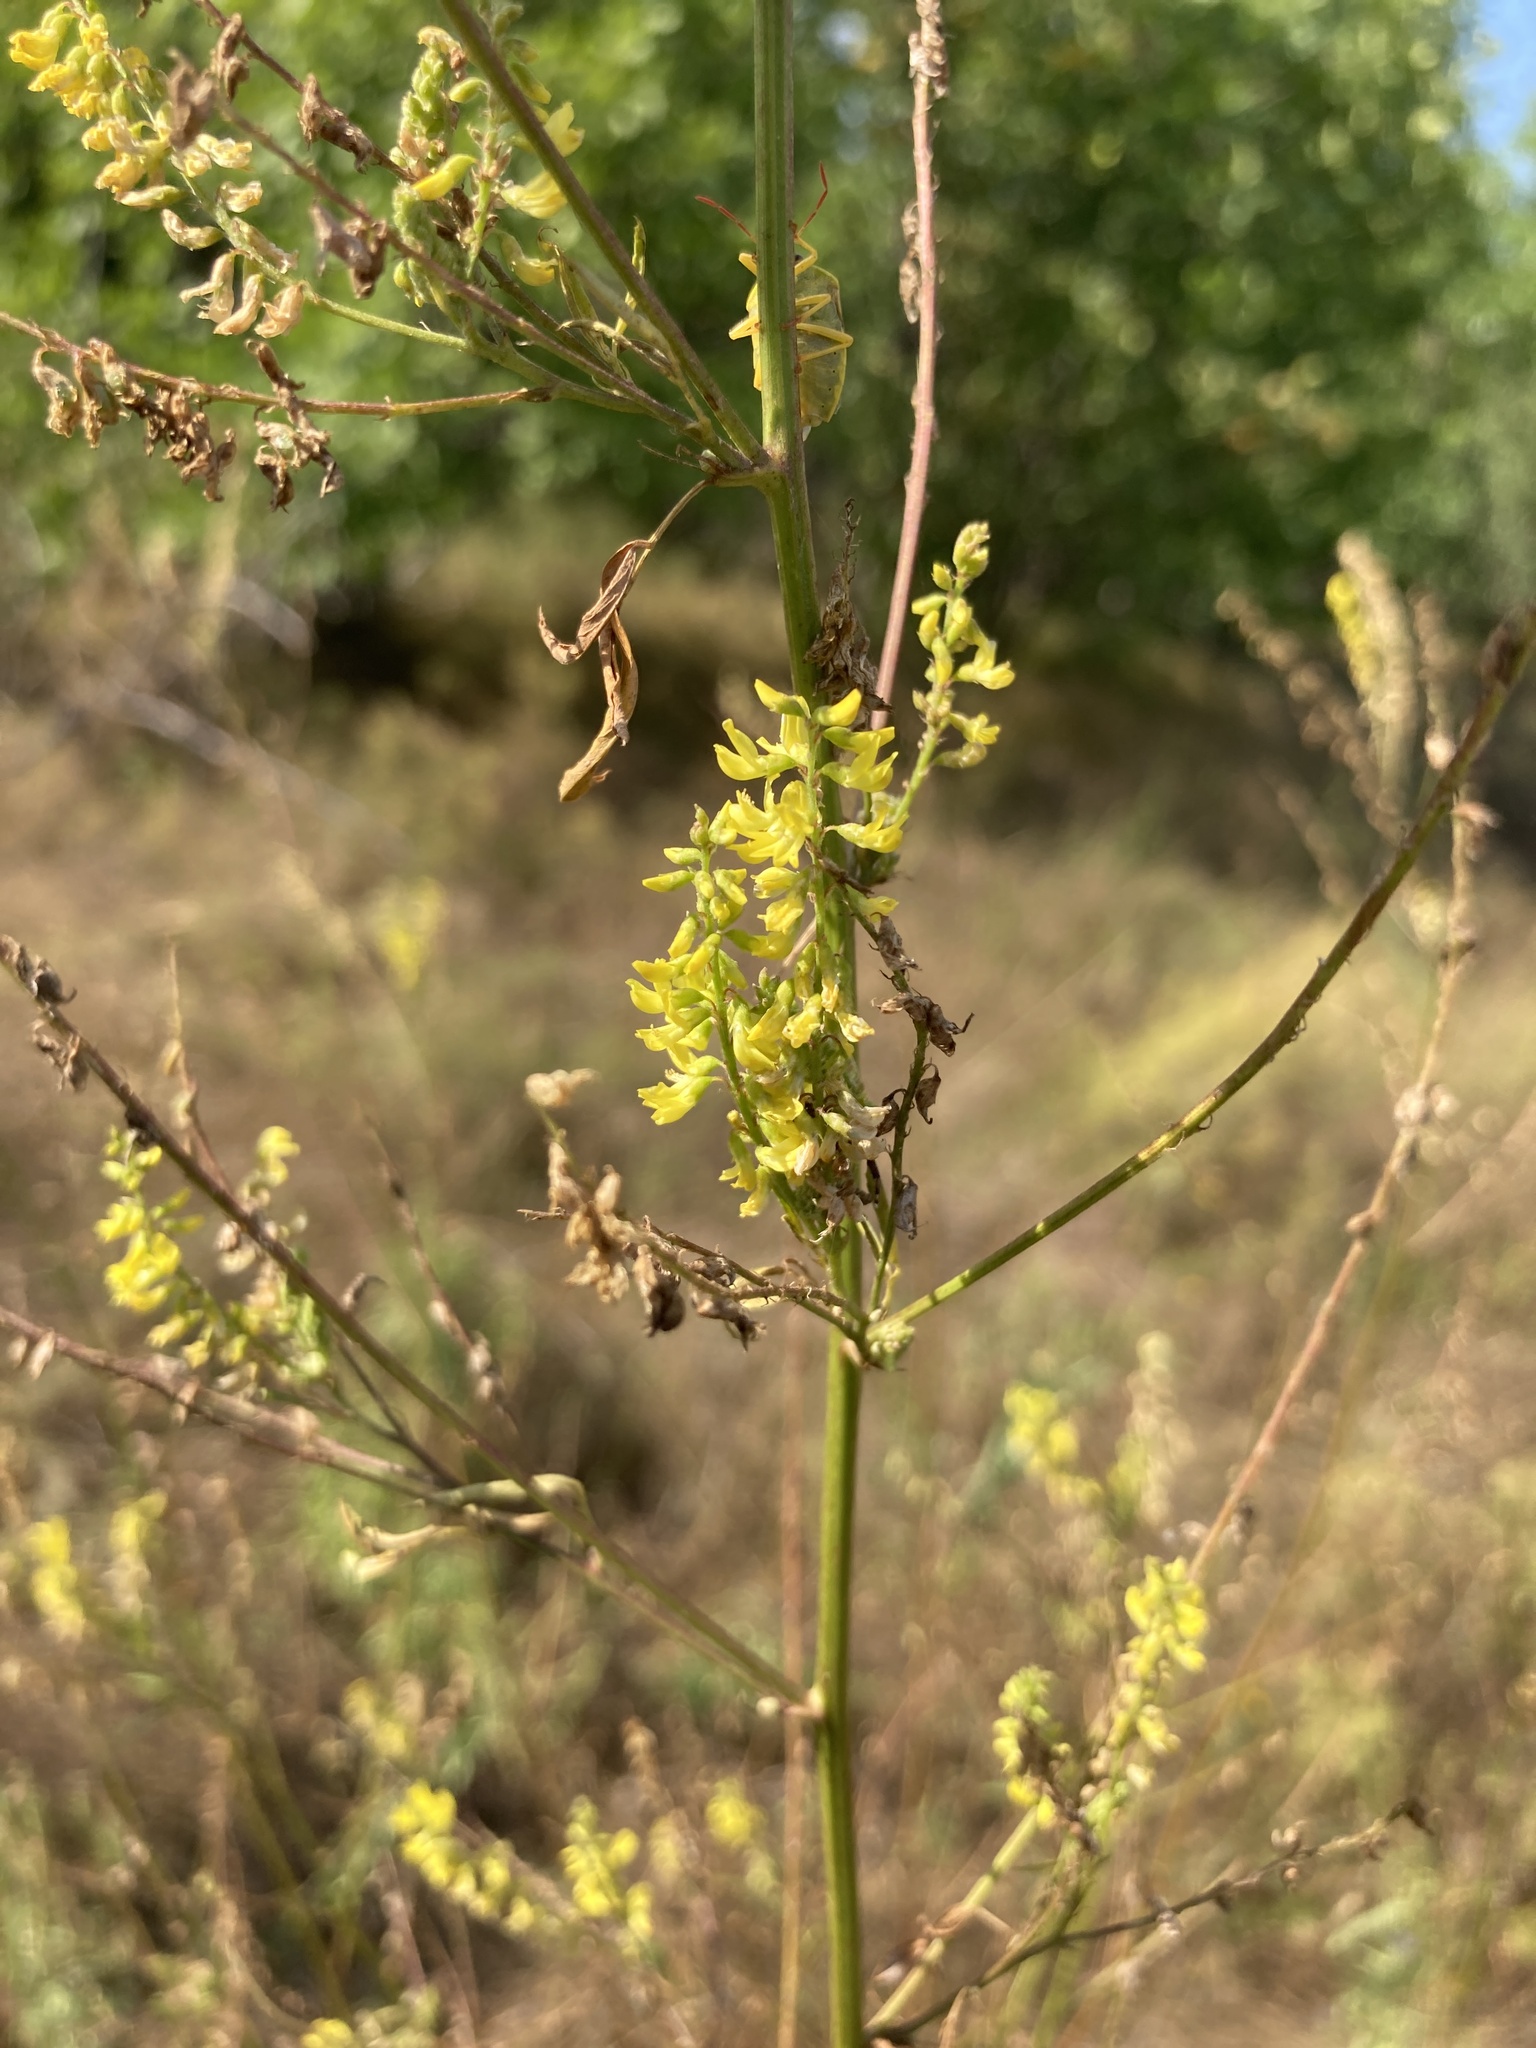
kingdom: Plantae
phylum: Tracheophyta
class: Magnoliopsida
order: Fabales
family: Fabaceae
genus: Melilotus
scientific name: Melilotus officinalis
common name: Sweetclover
